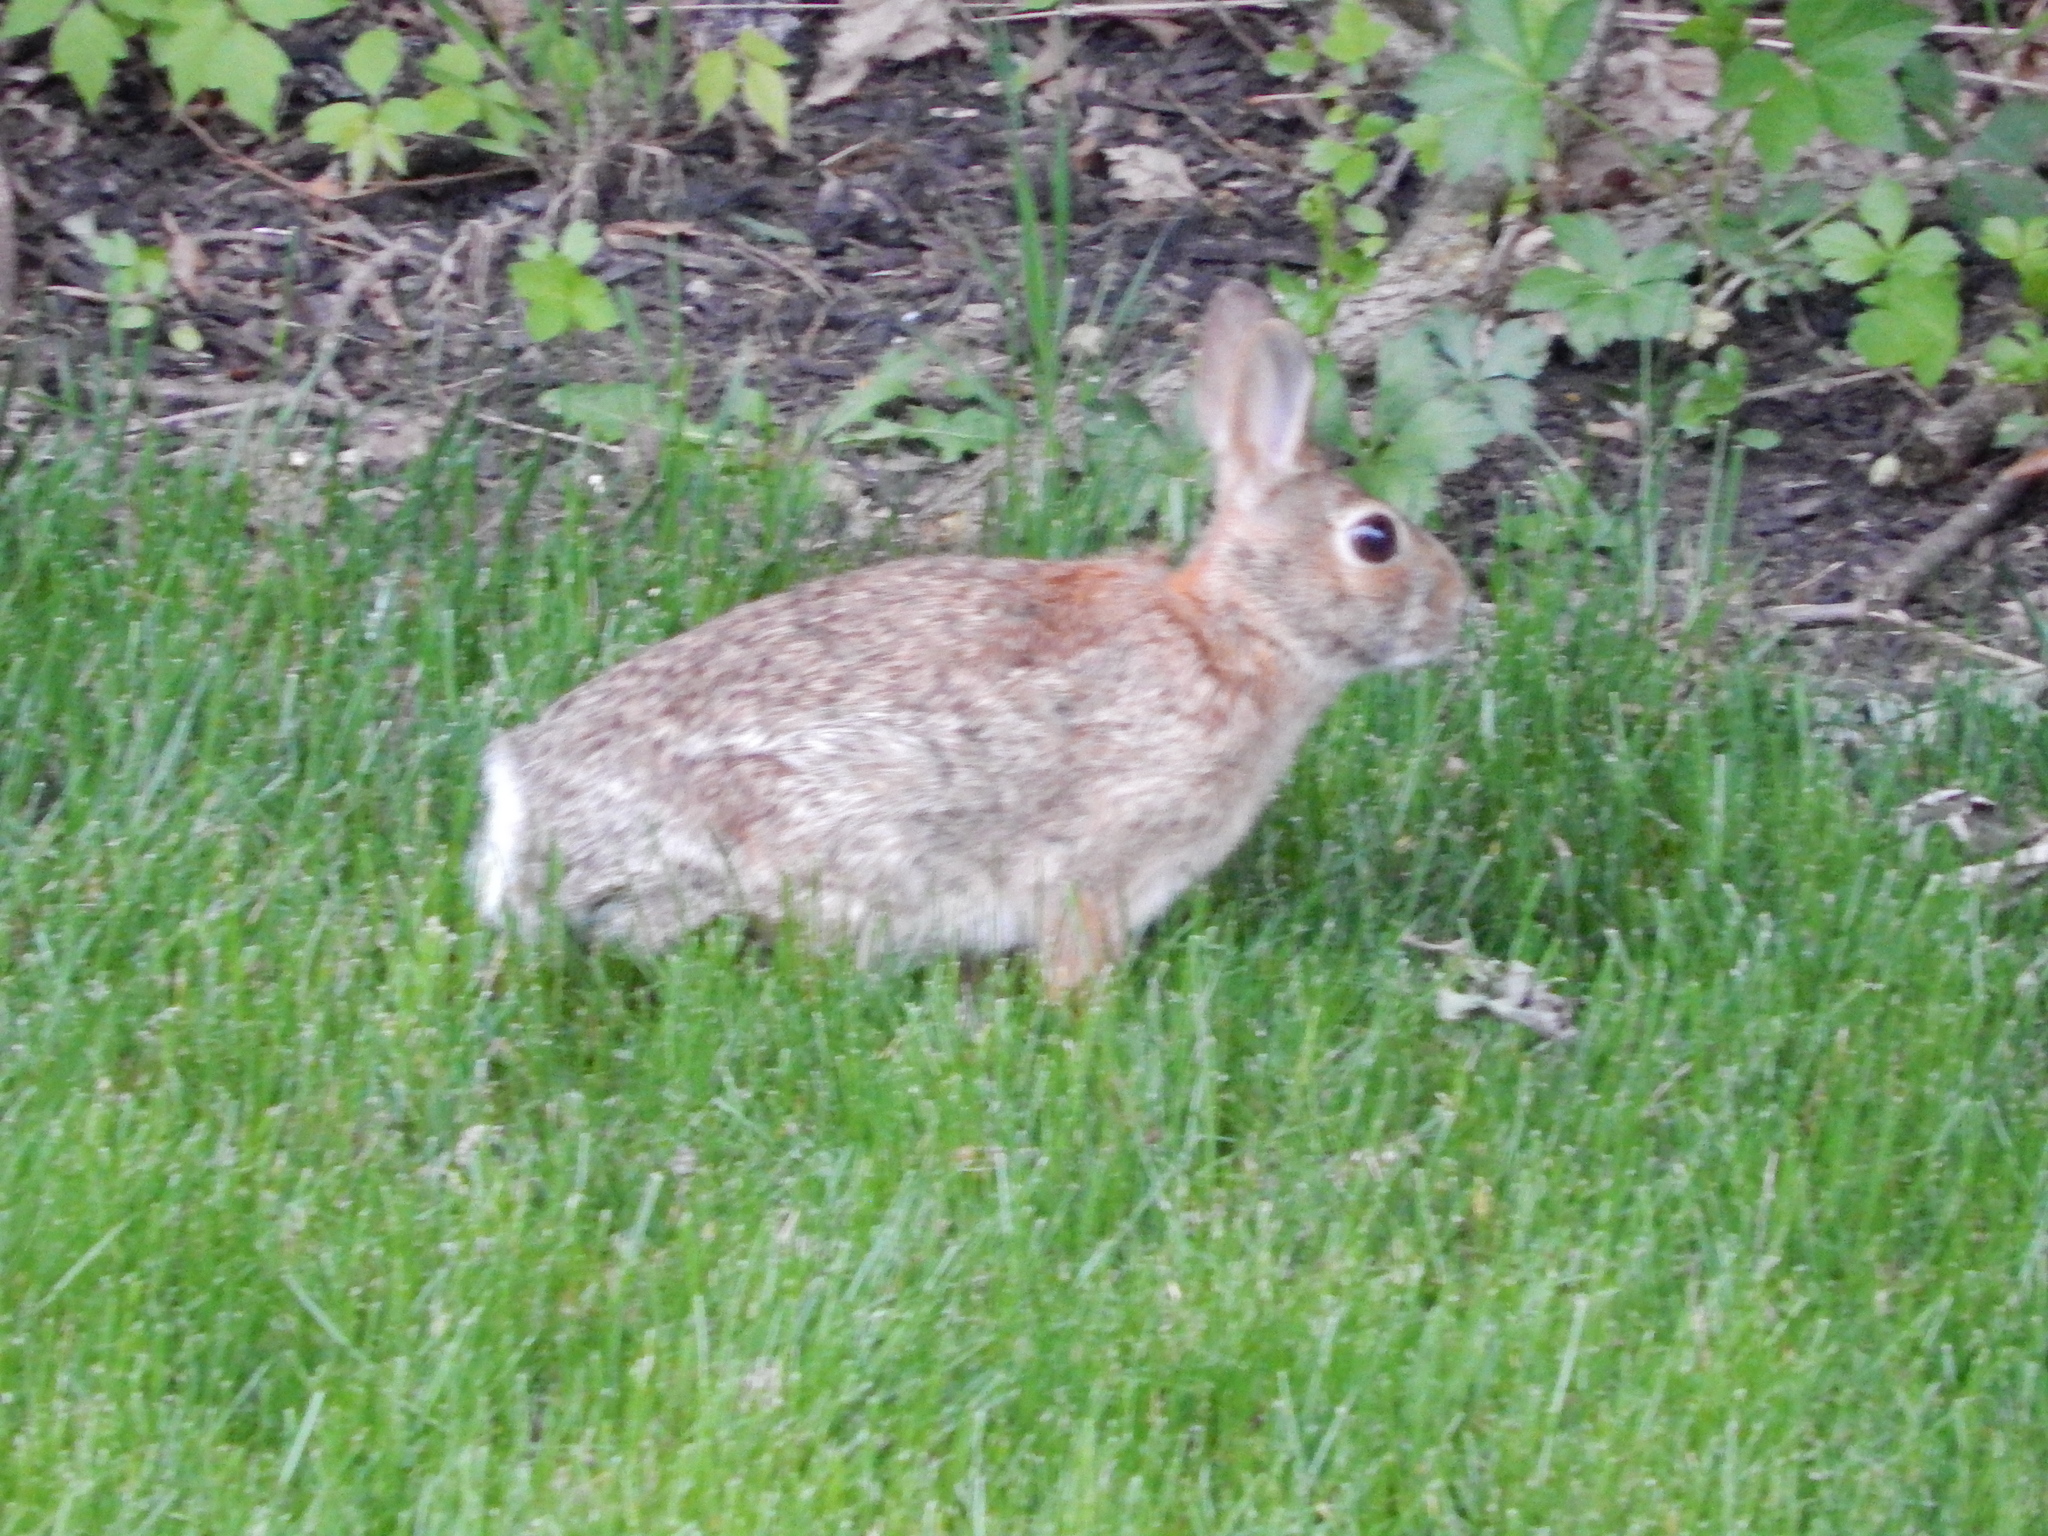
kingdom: Animalia
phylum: Chordata
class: Mammalia
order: Lagomorpha
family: Leporidae
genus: Sylvilagus
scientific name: Sylvilagus floridanus
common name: Eastern cottontail
